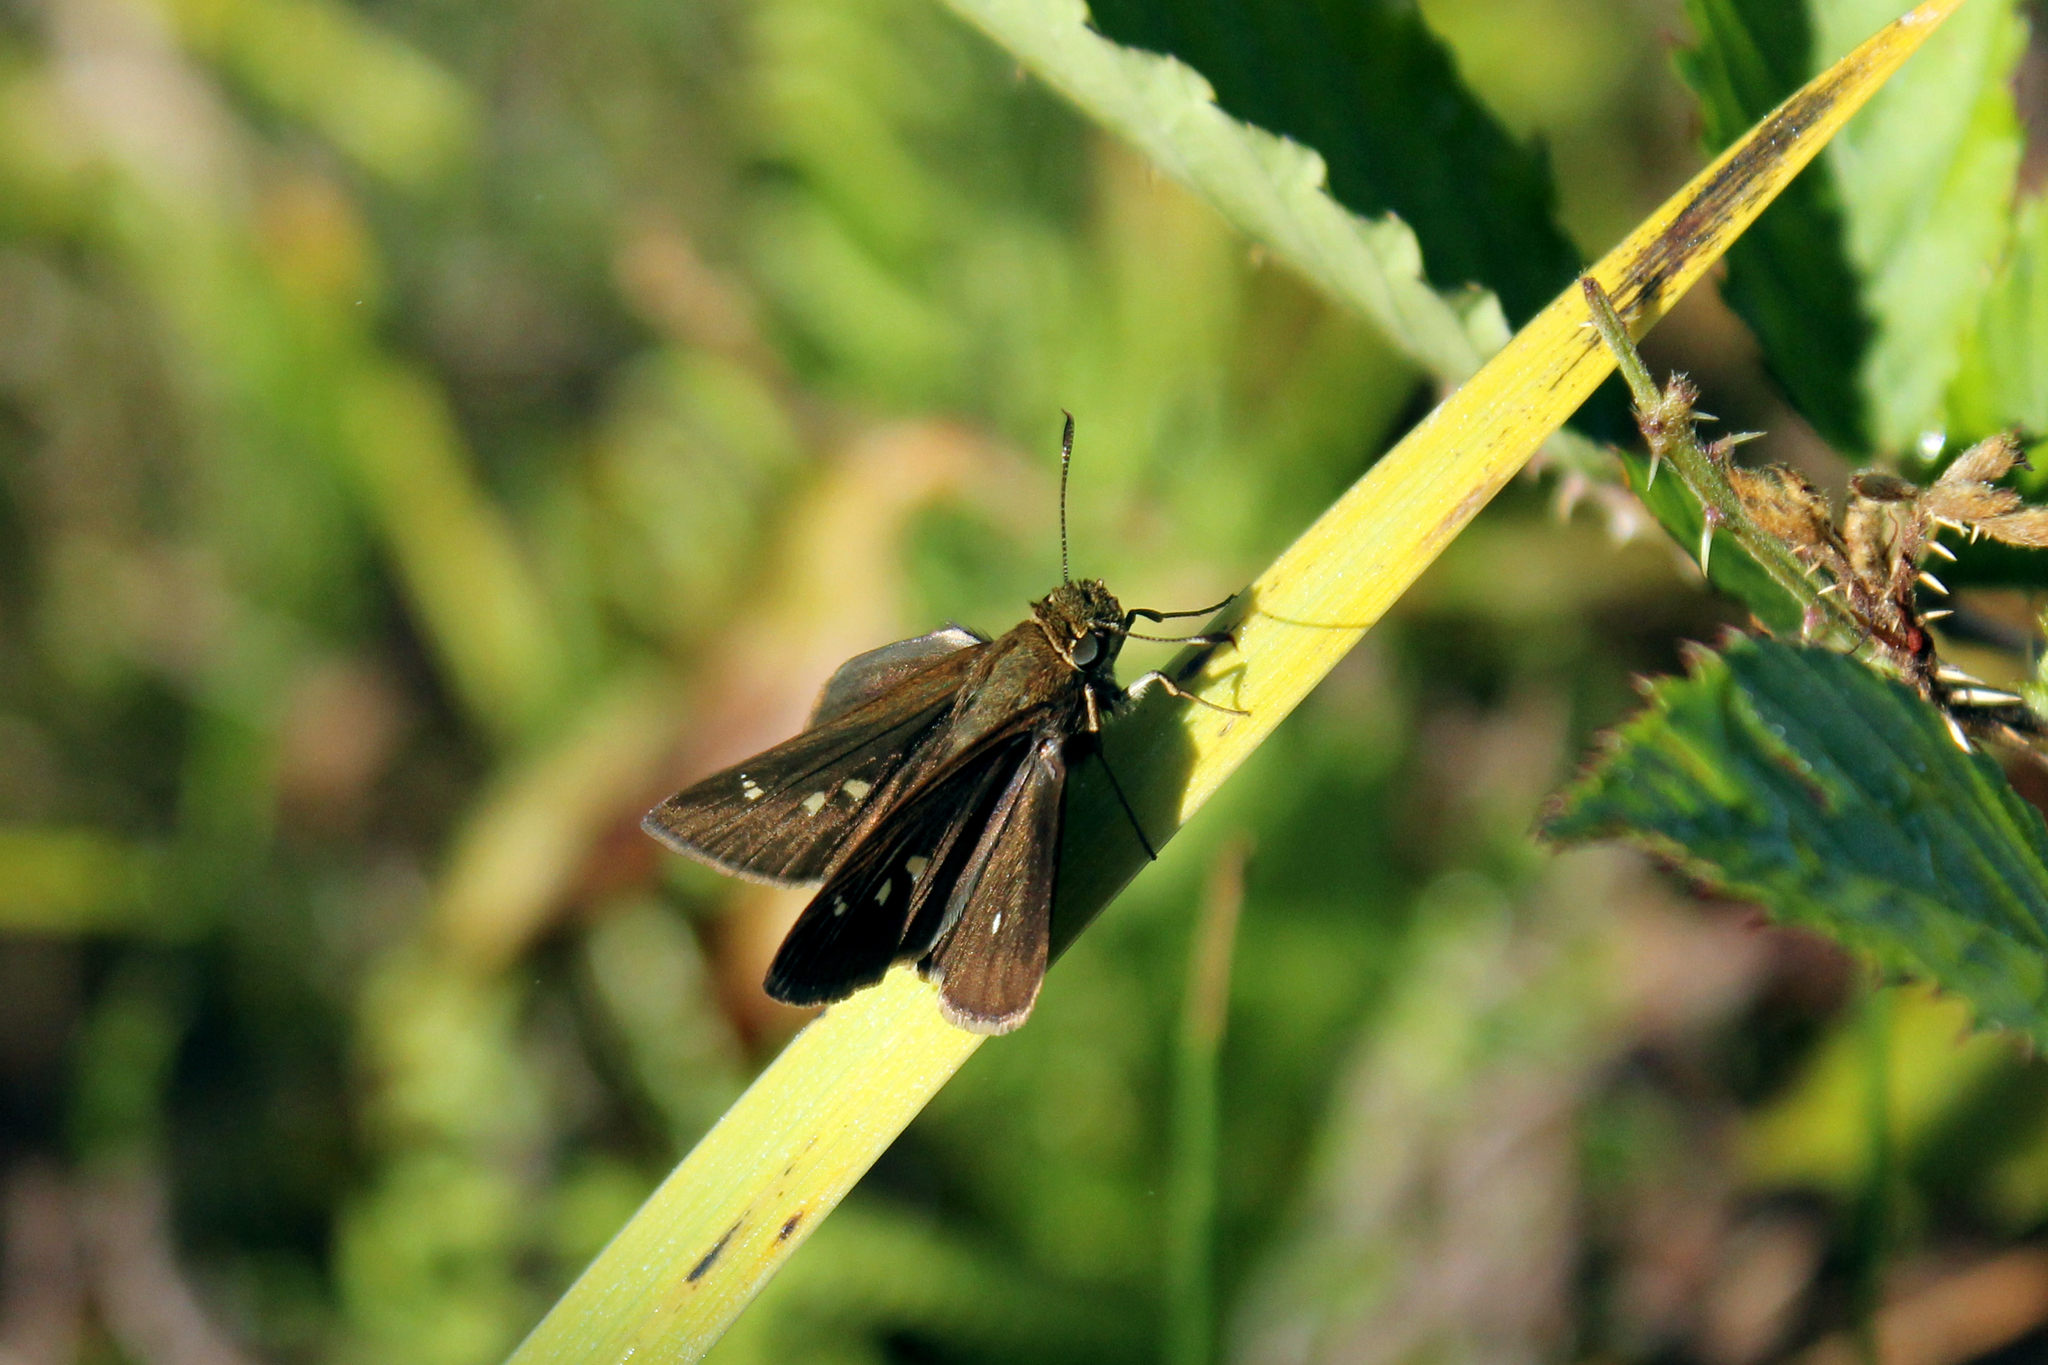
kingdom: Animalia
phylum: Arthropoda
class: Insecta
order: Lepidoptera
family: Hesperiidae
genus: Oligoria
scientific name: Oligoria maculata
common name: Twin-spot skipper
